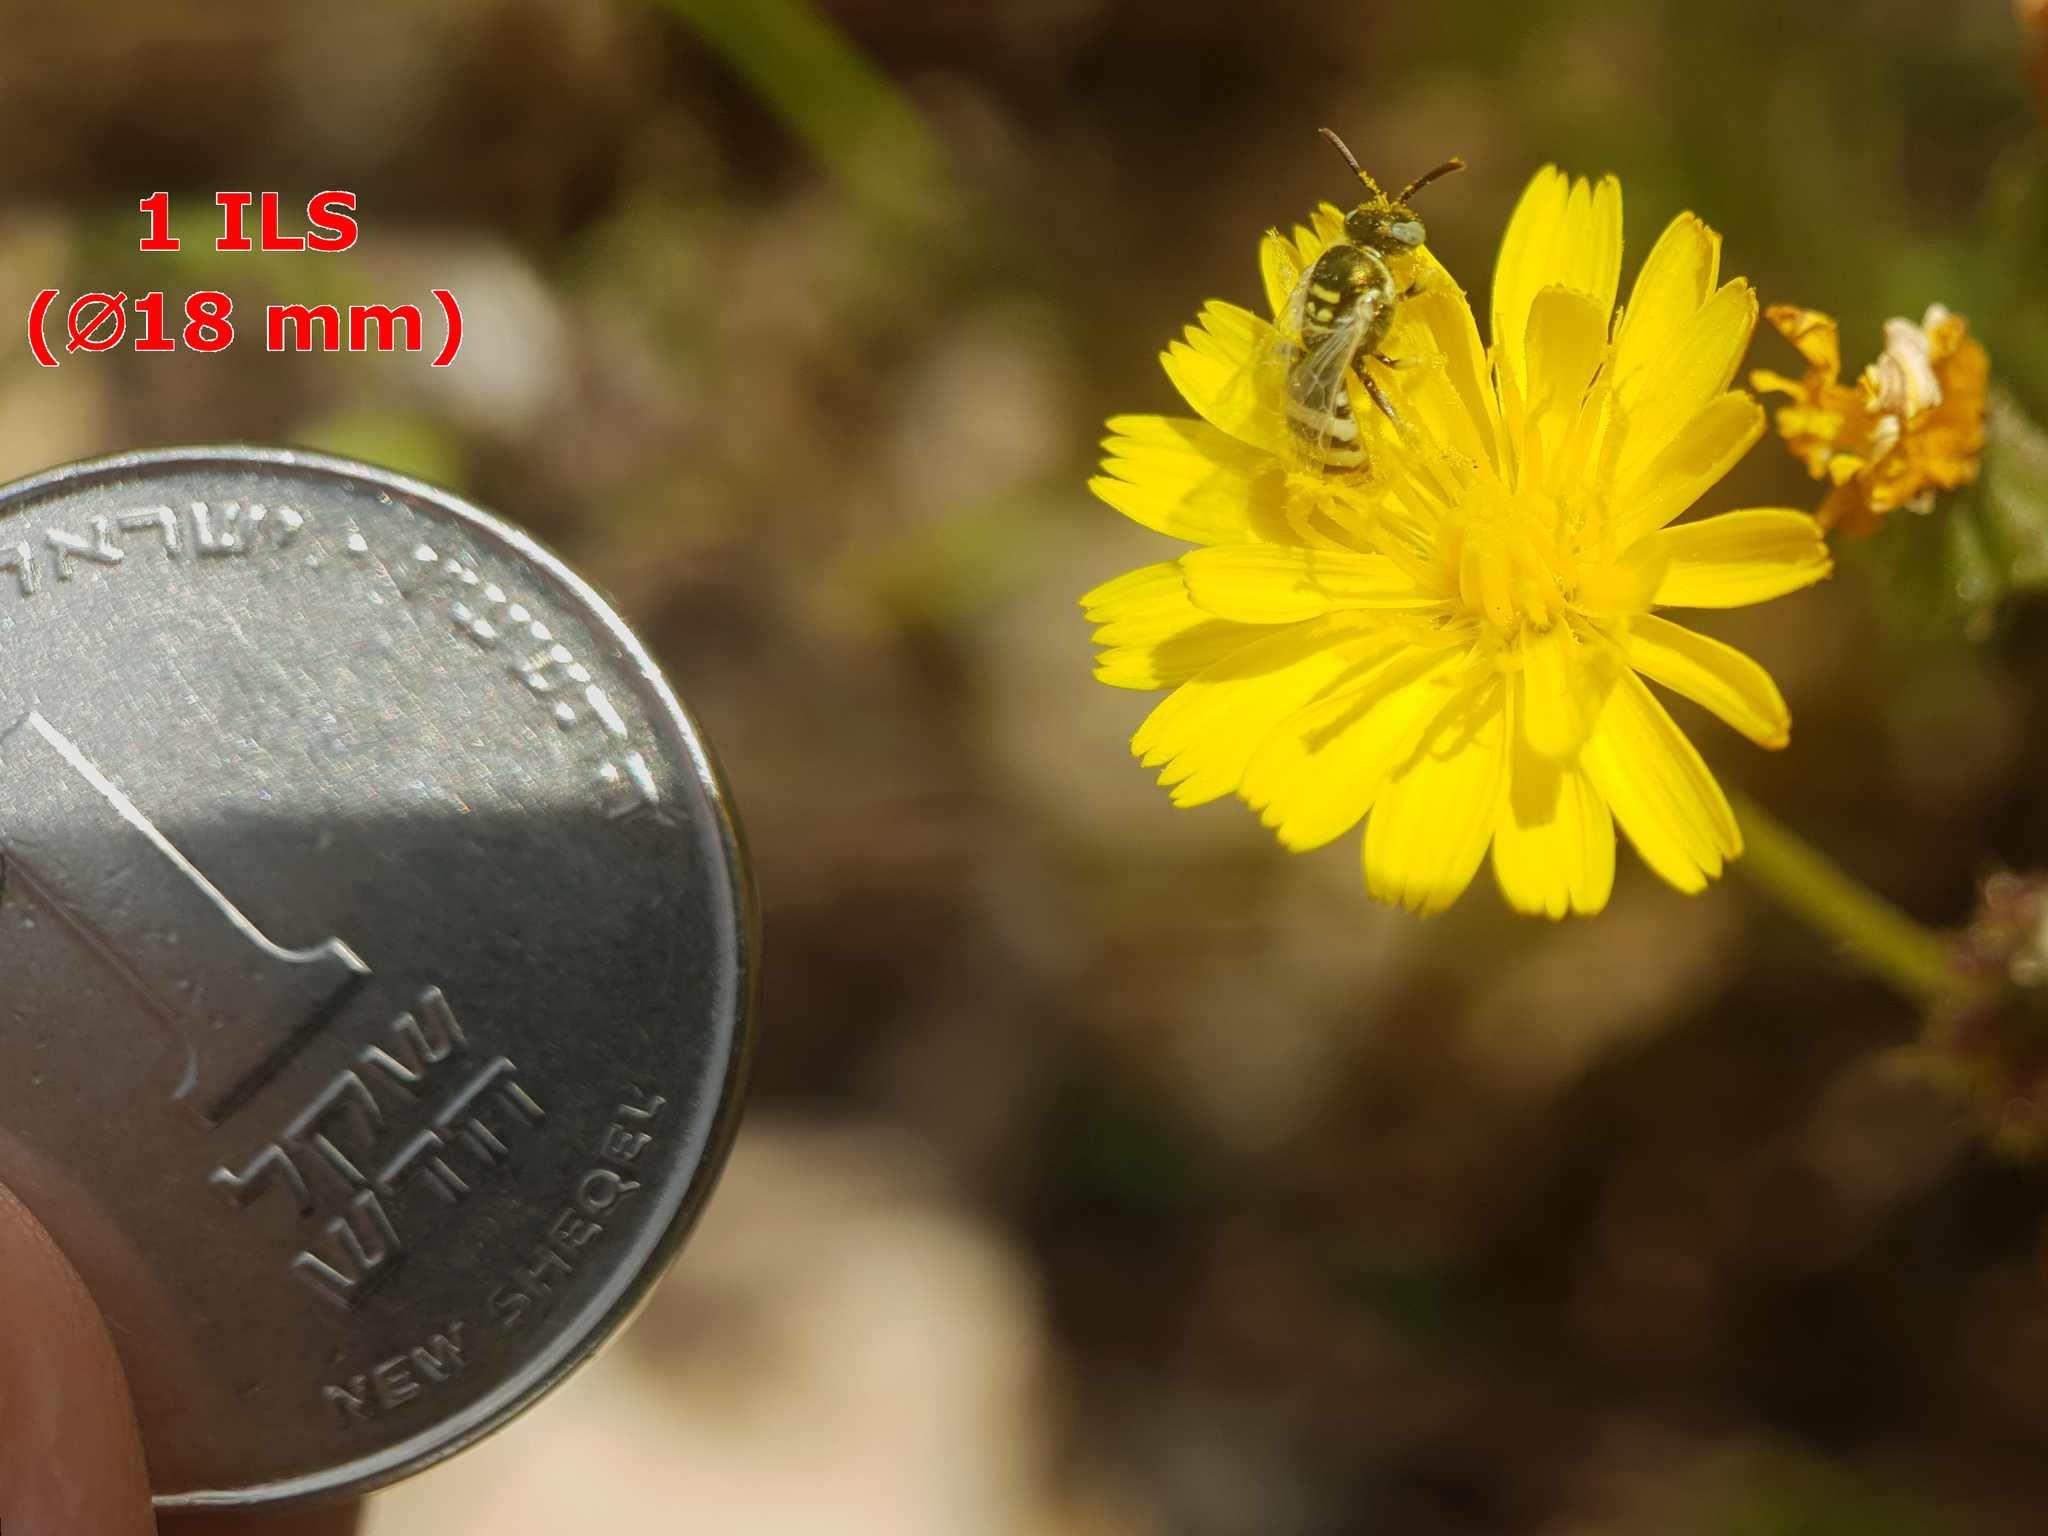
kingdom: Animalia
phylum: Arthropoda
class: Insecta
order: Hymenoptera
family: Halictidae
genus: Ceylalictus
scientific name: Ceylalictus variegatus
